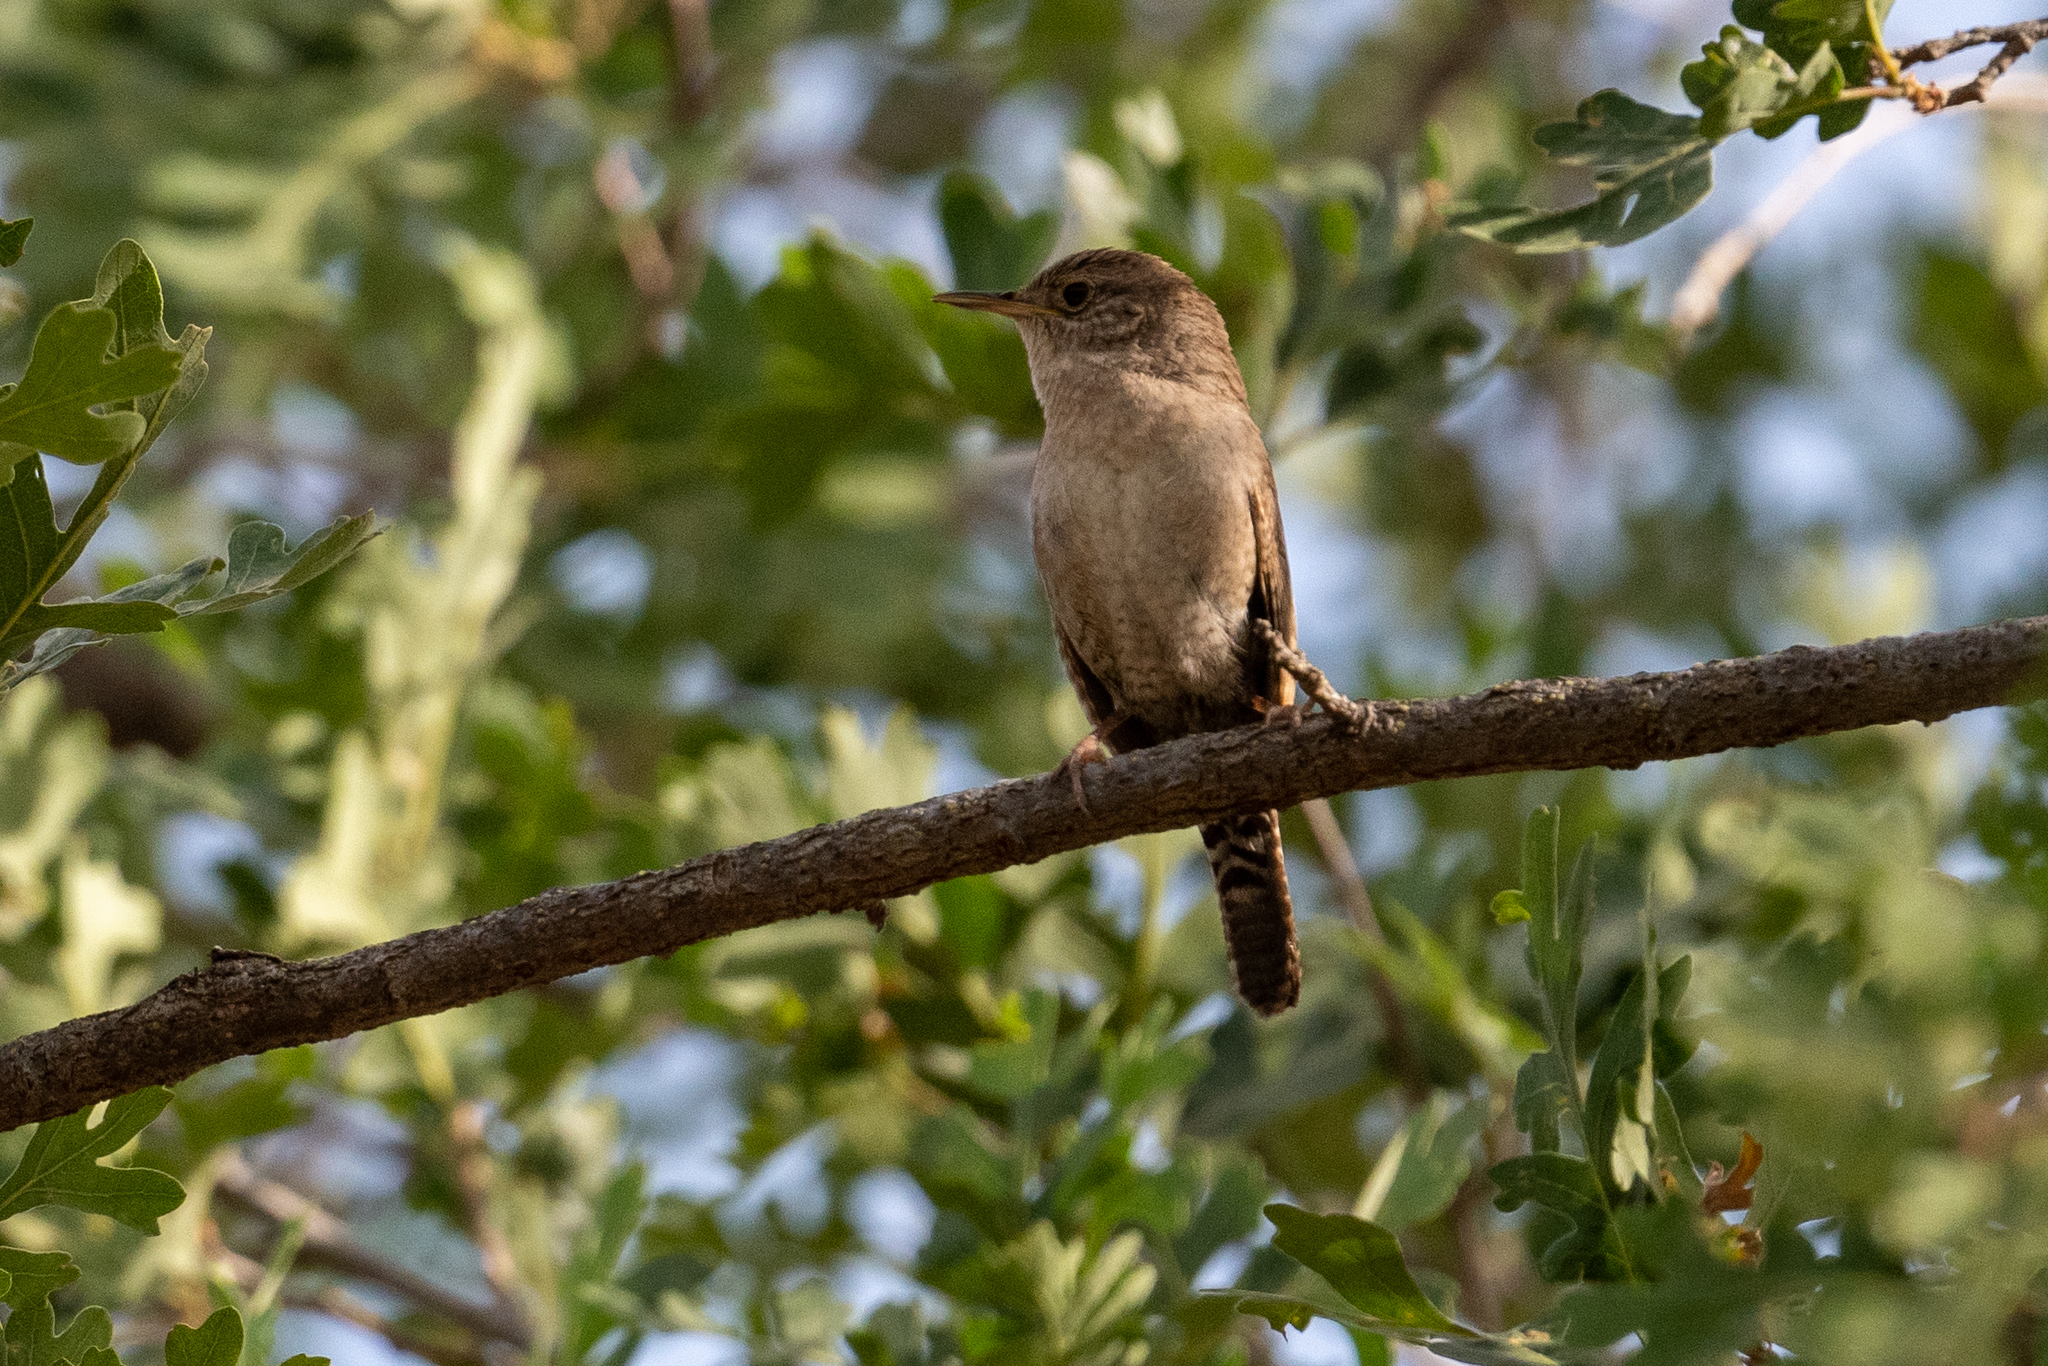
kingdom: Animalia
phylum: Chordata
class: Aves
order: Passeriformes
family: Troglodytidae
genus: Troglodytes
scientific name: Troglodytes aedon
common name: House wren
